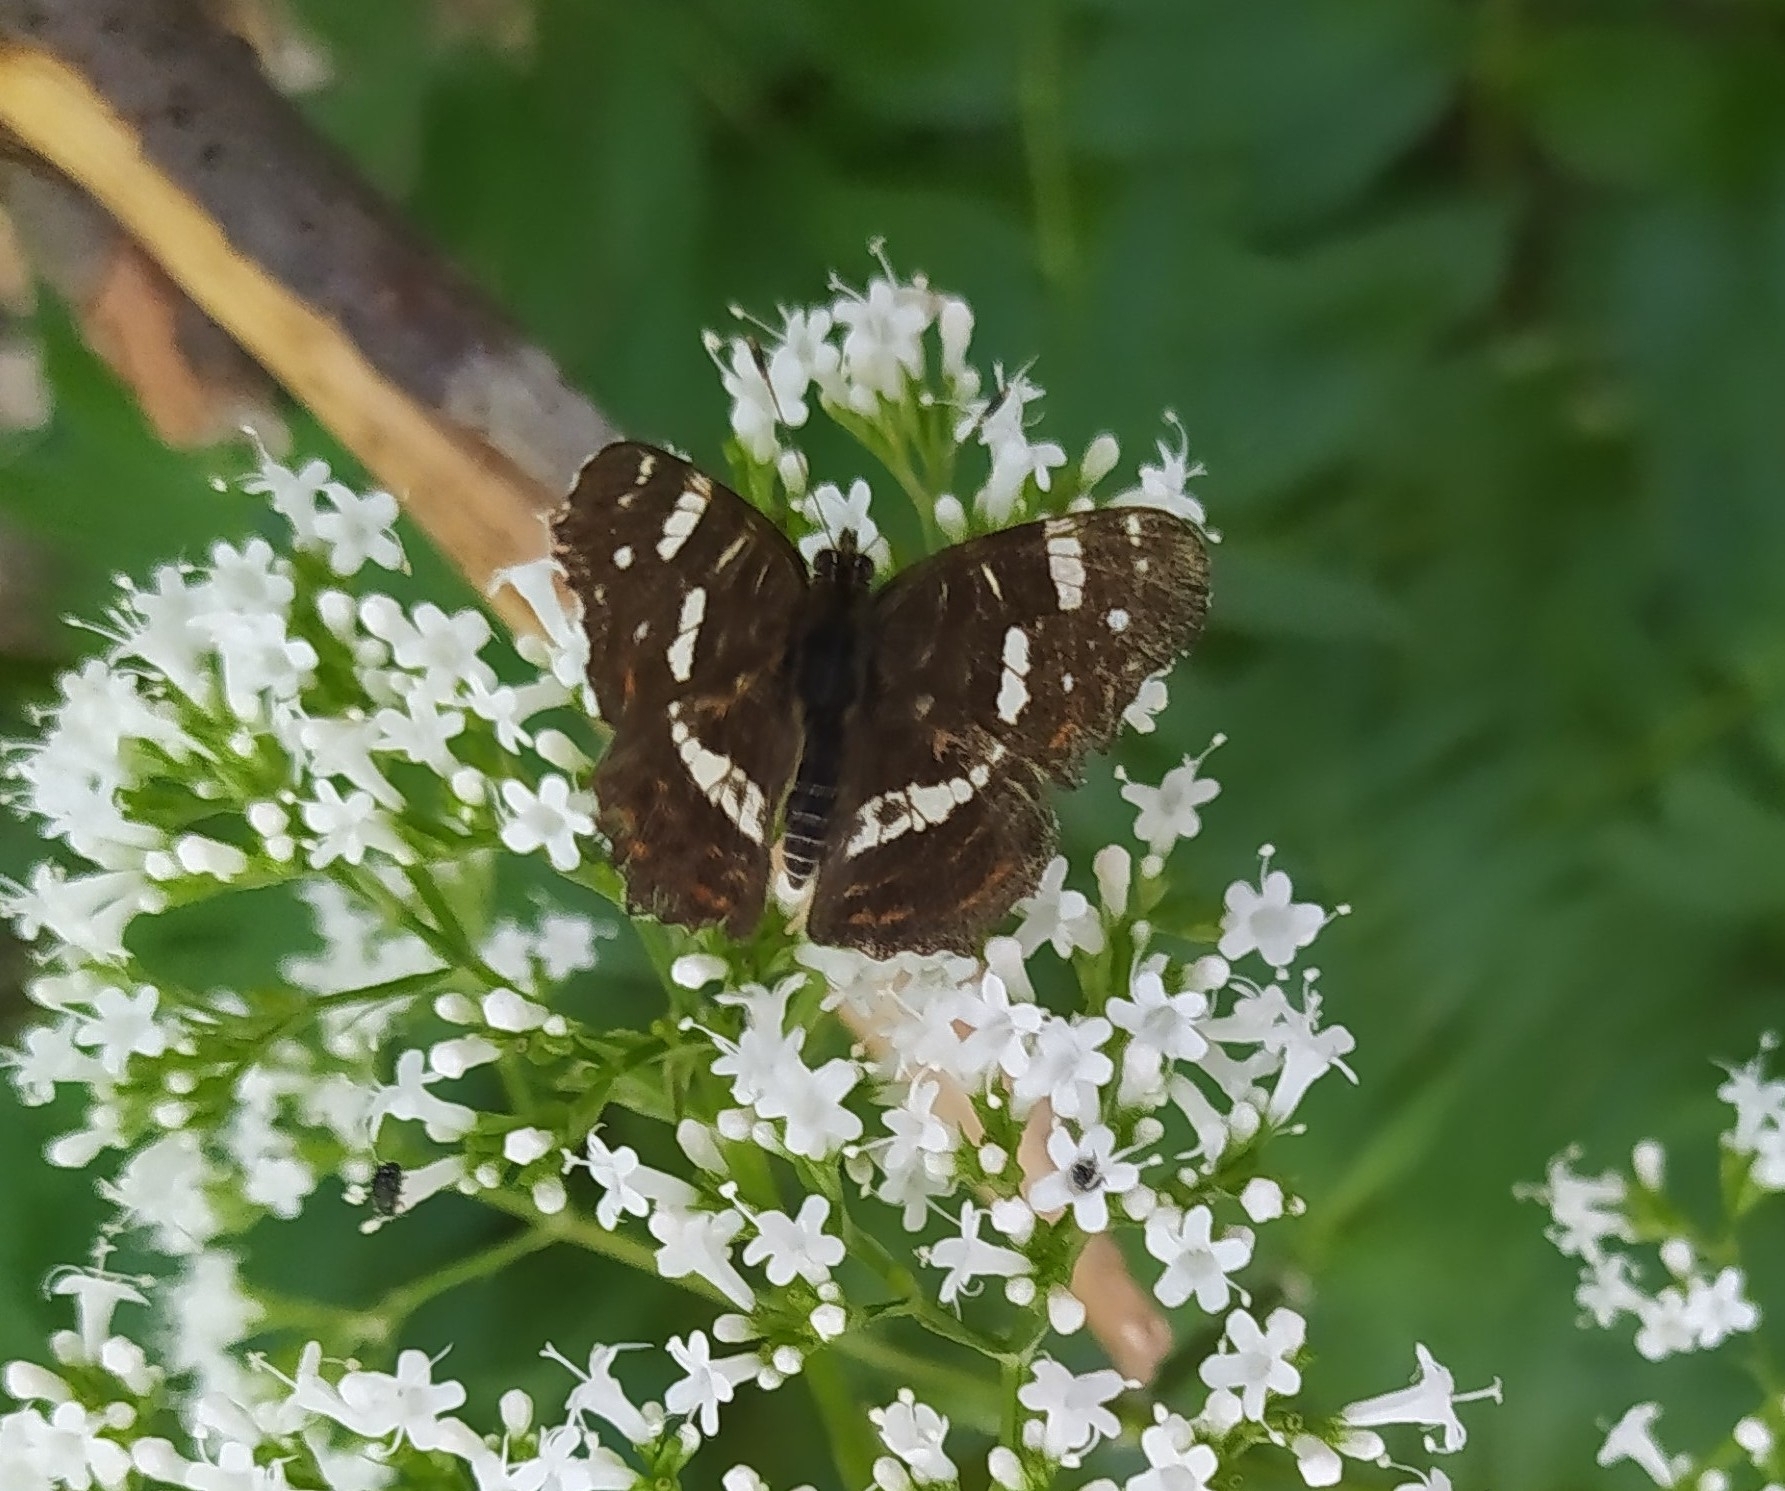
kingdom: Animalia
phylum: Arthropoda
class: Insecta
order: Lepidoptera
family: Nymphalidae
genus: Araschnia
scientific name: Araschnia levana
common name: Map butterfly
